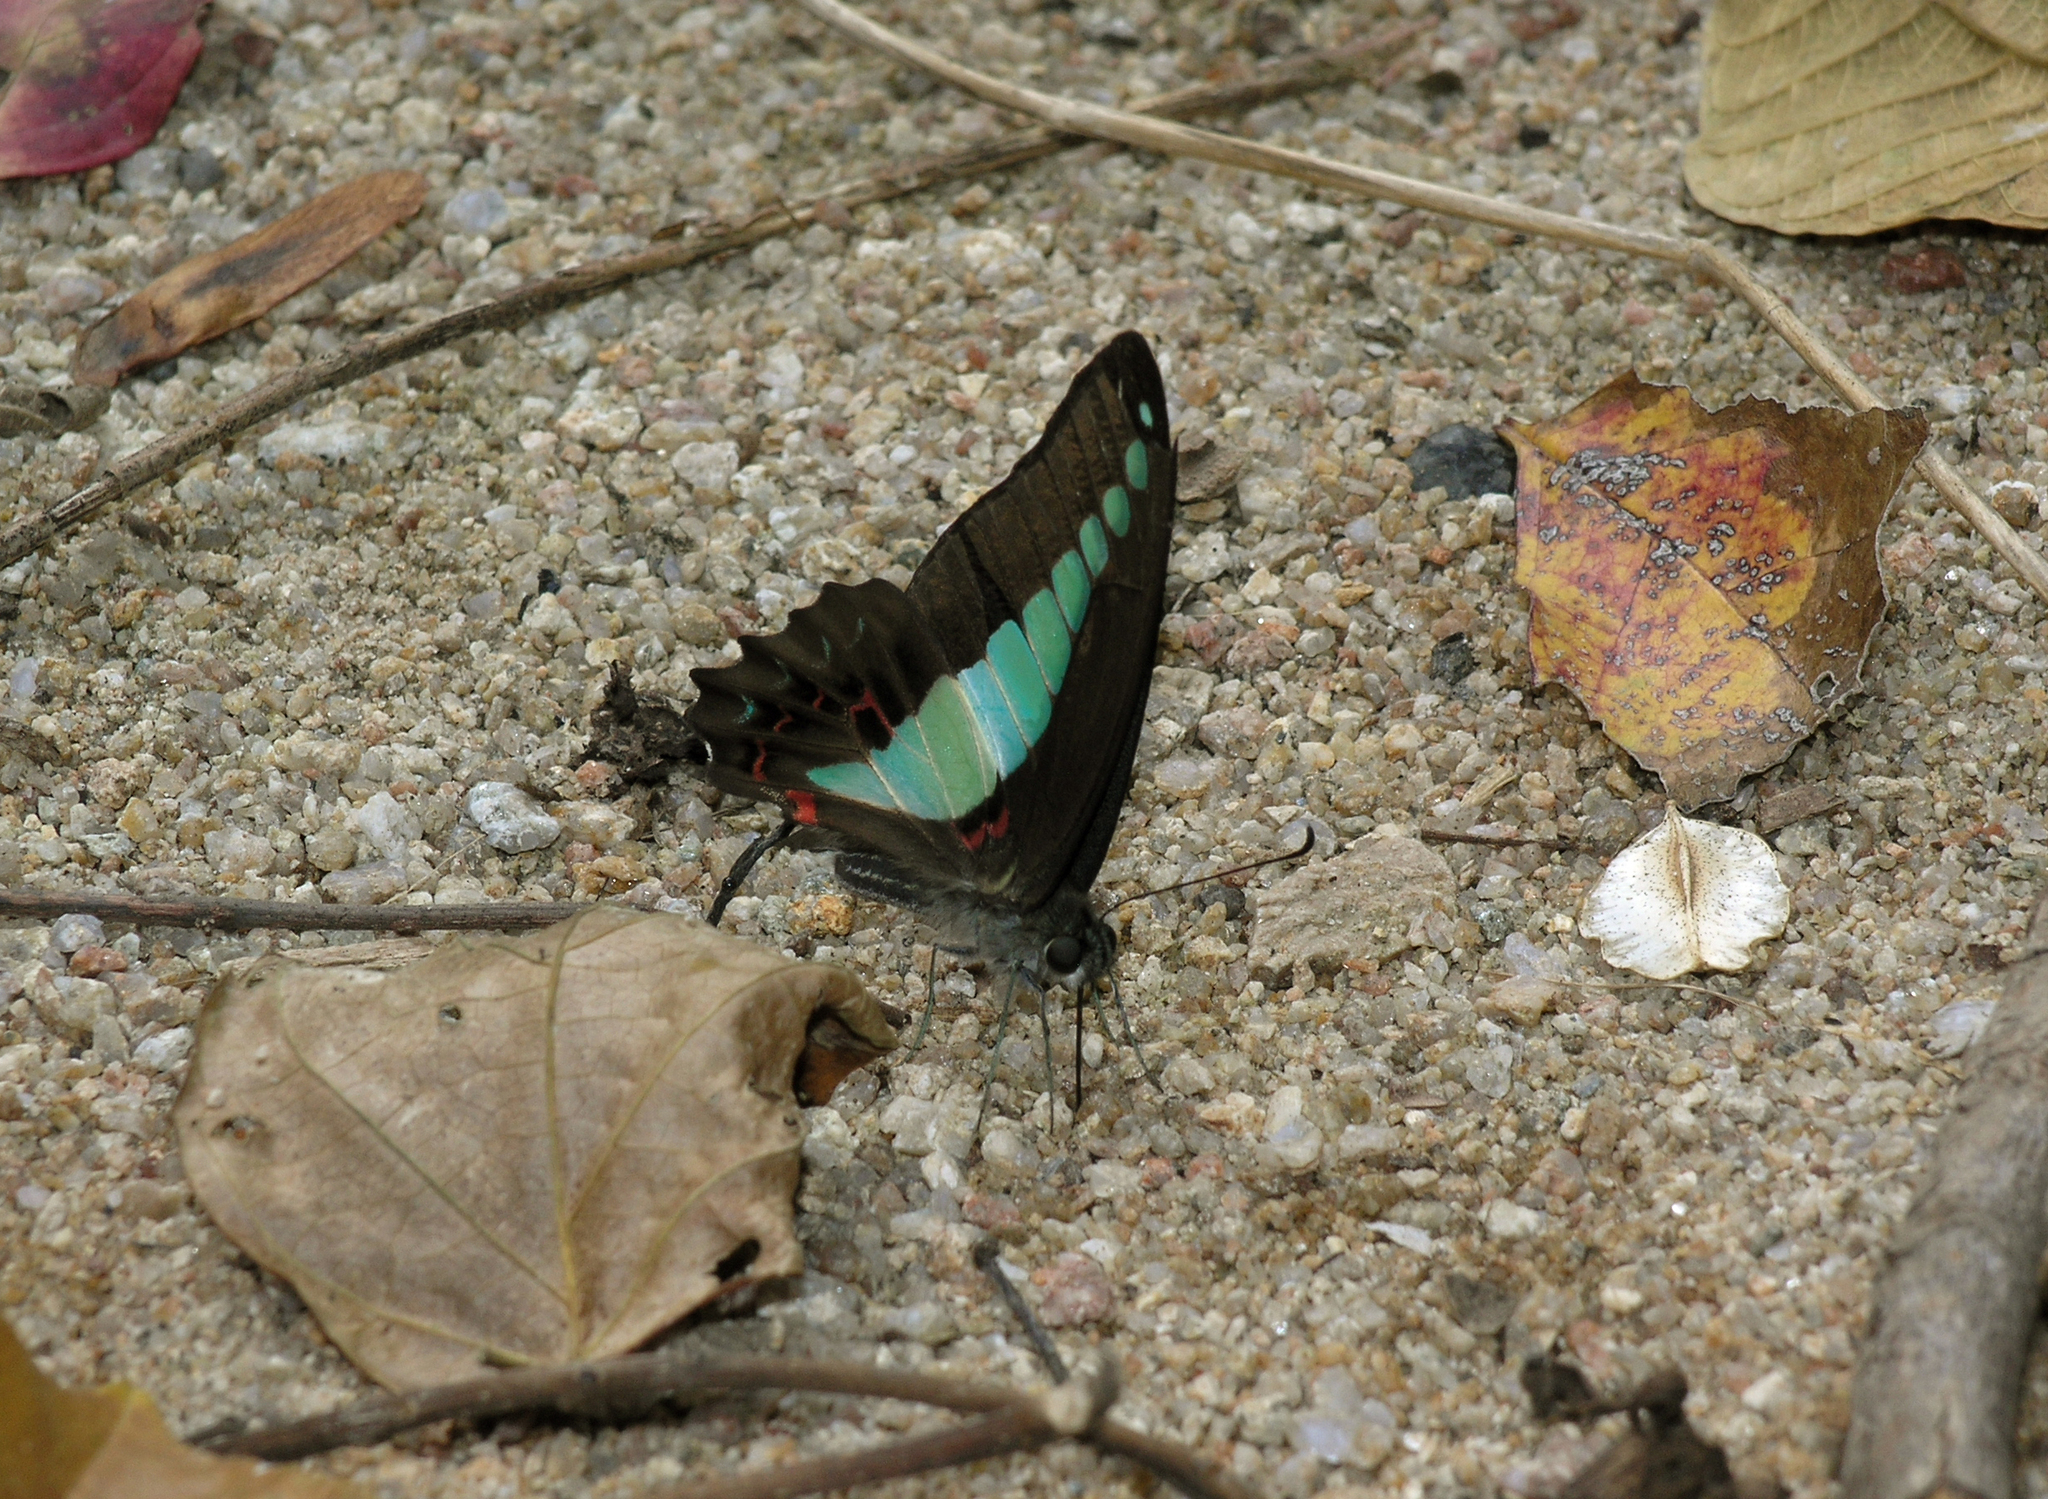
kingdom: Fungi
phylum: Ascomycota
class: Sordariomycetes
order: Microascales
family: Microascaceae
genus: Graphium
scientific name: Graphium sarpedon
